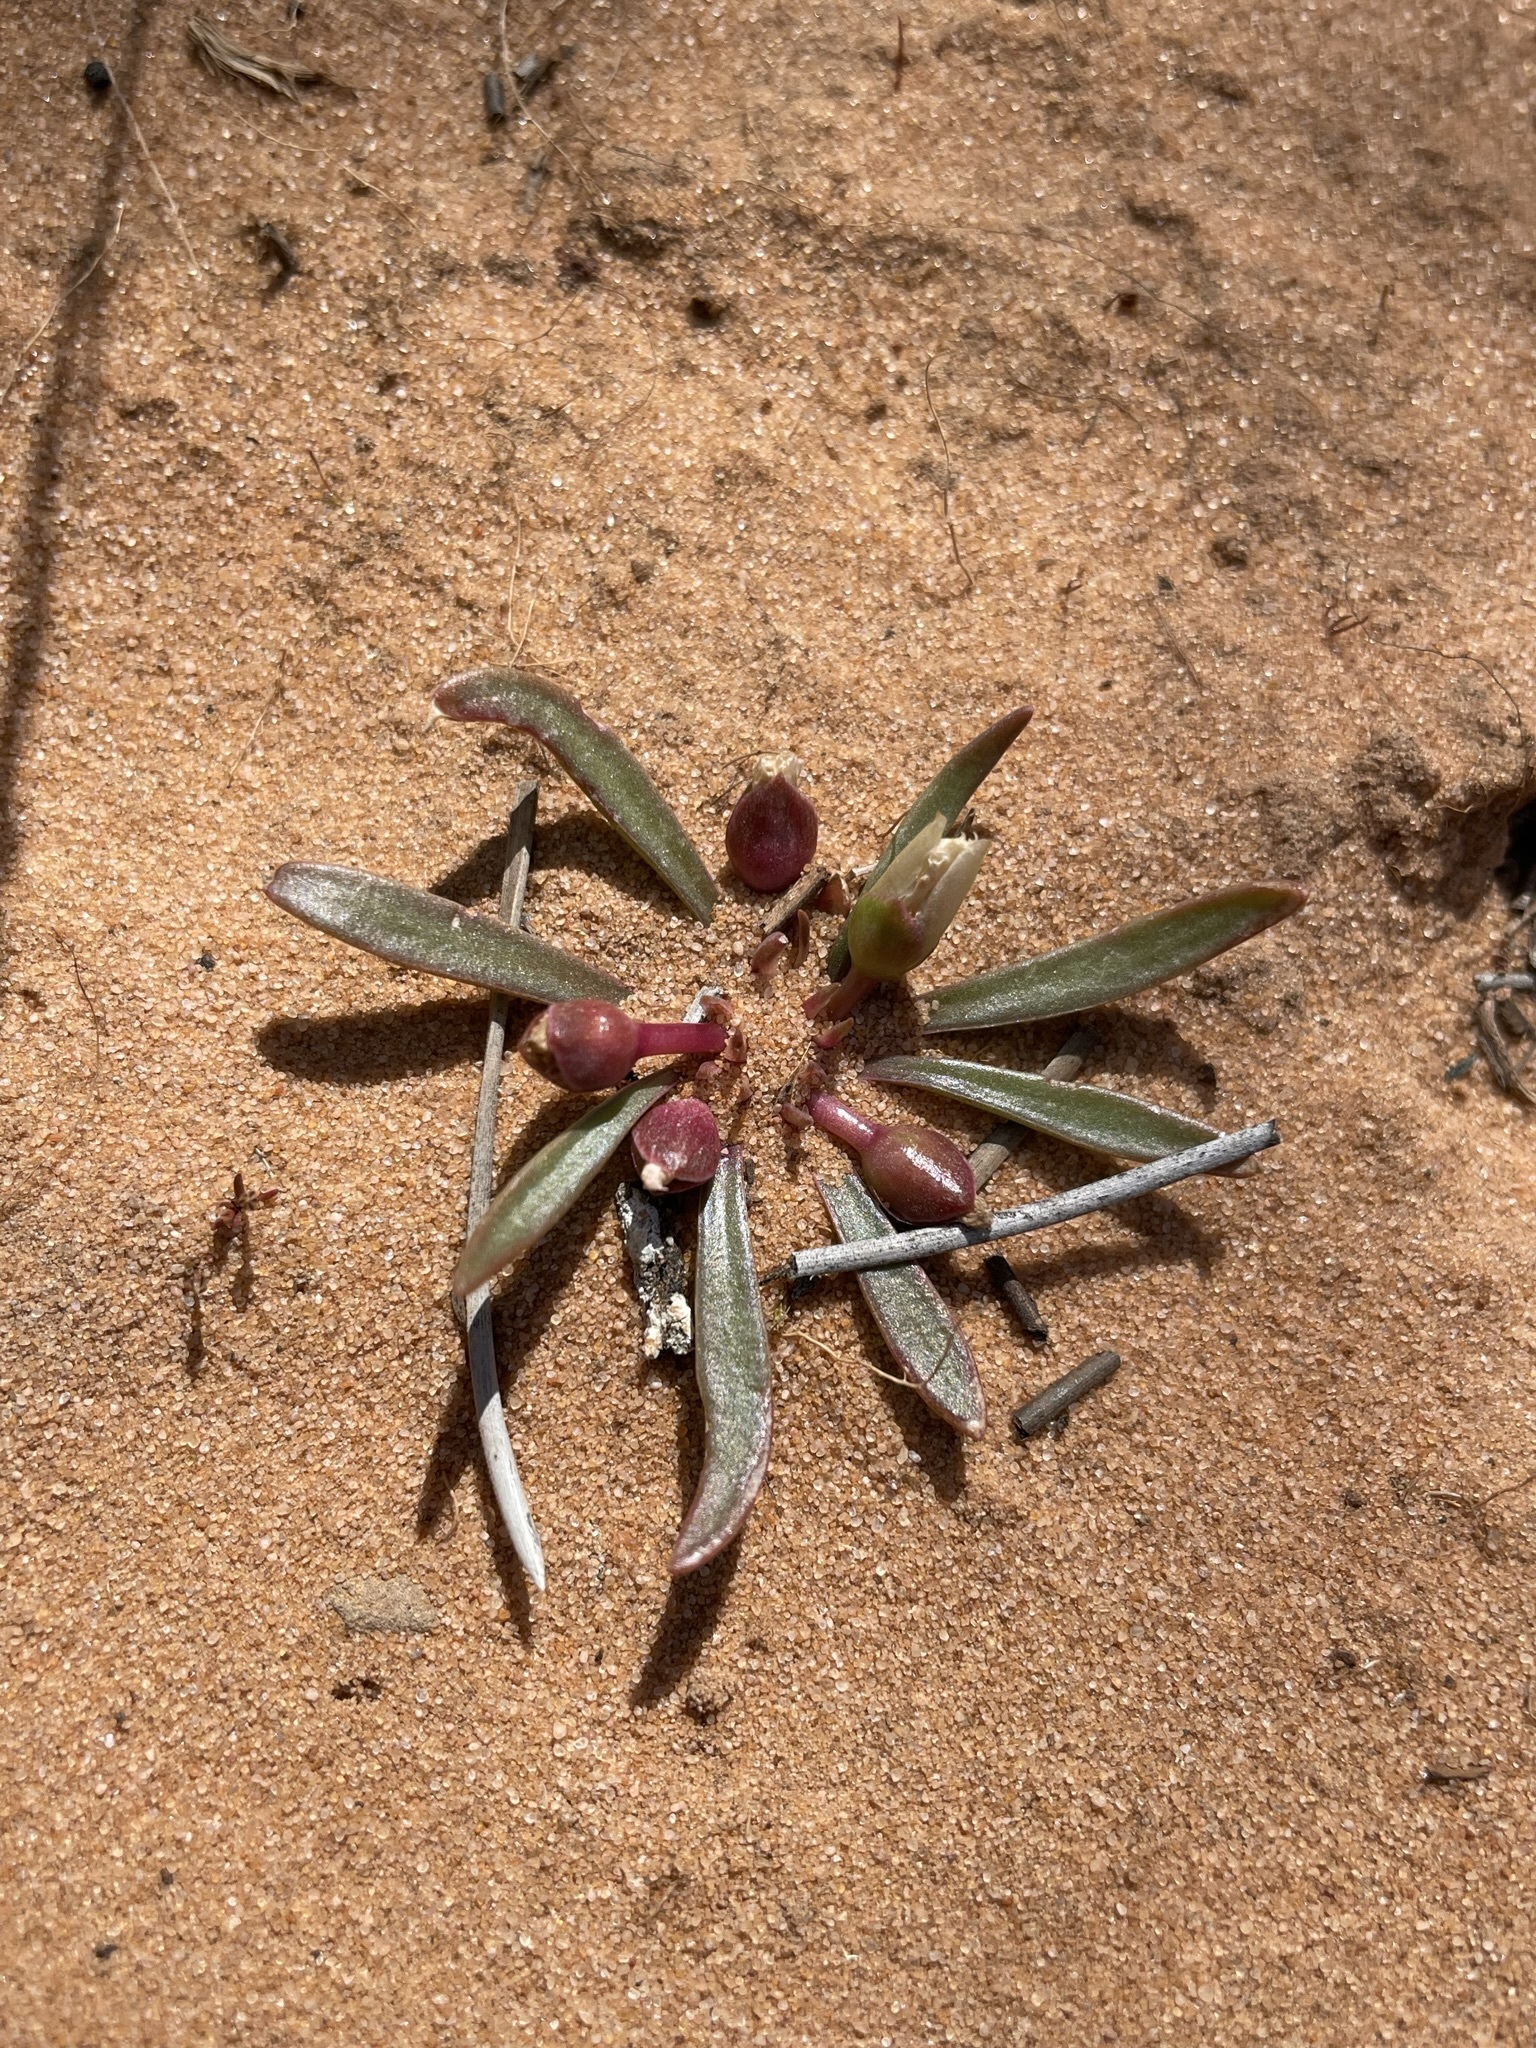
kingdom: Plantae
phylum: Tracheophyta
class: Magnoliopsida
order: Caryophyllales
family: Montiaceae
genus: Lewisia
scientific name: Lewisia pygmaea
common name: Alpine bitterroot
